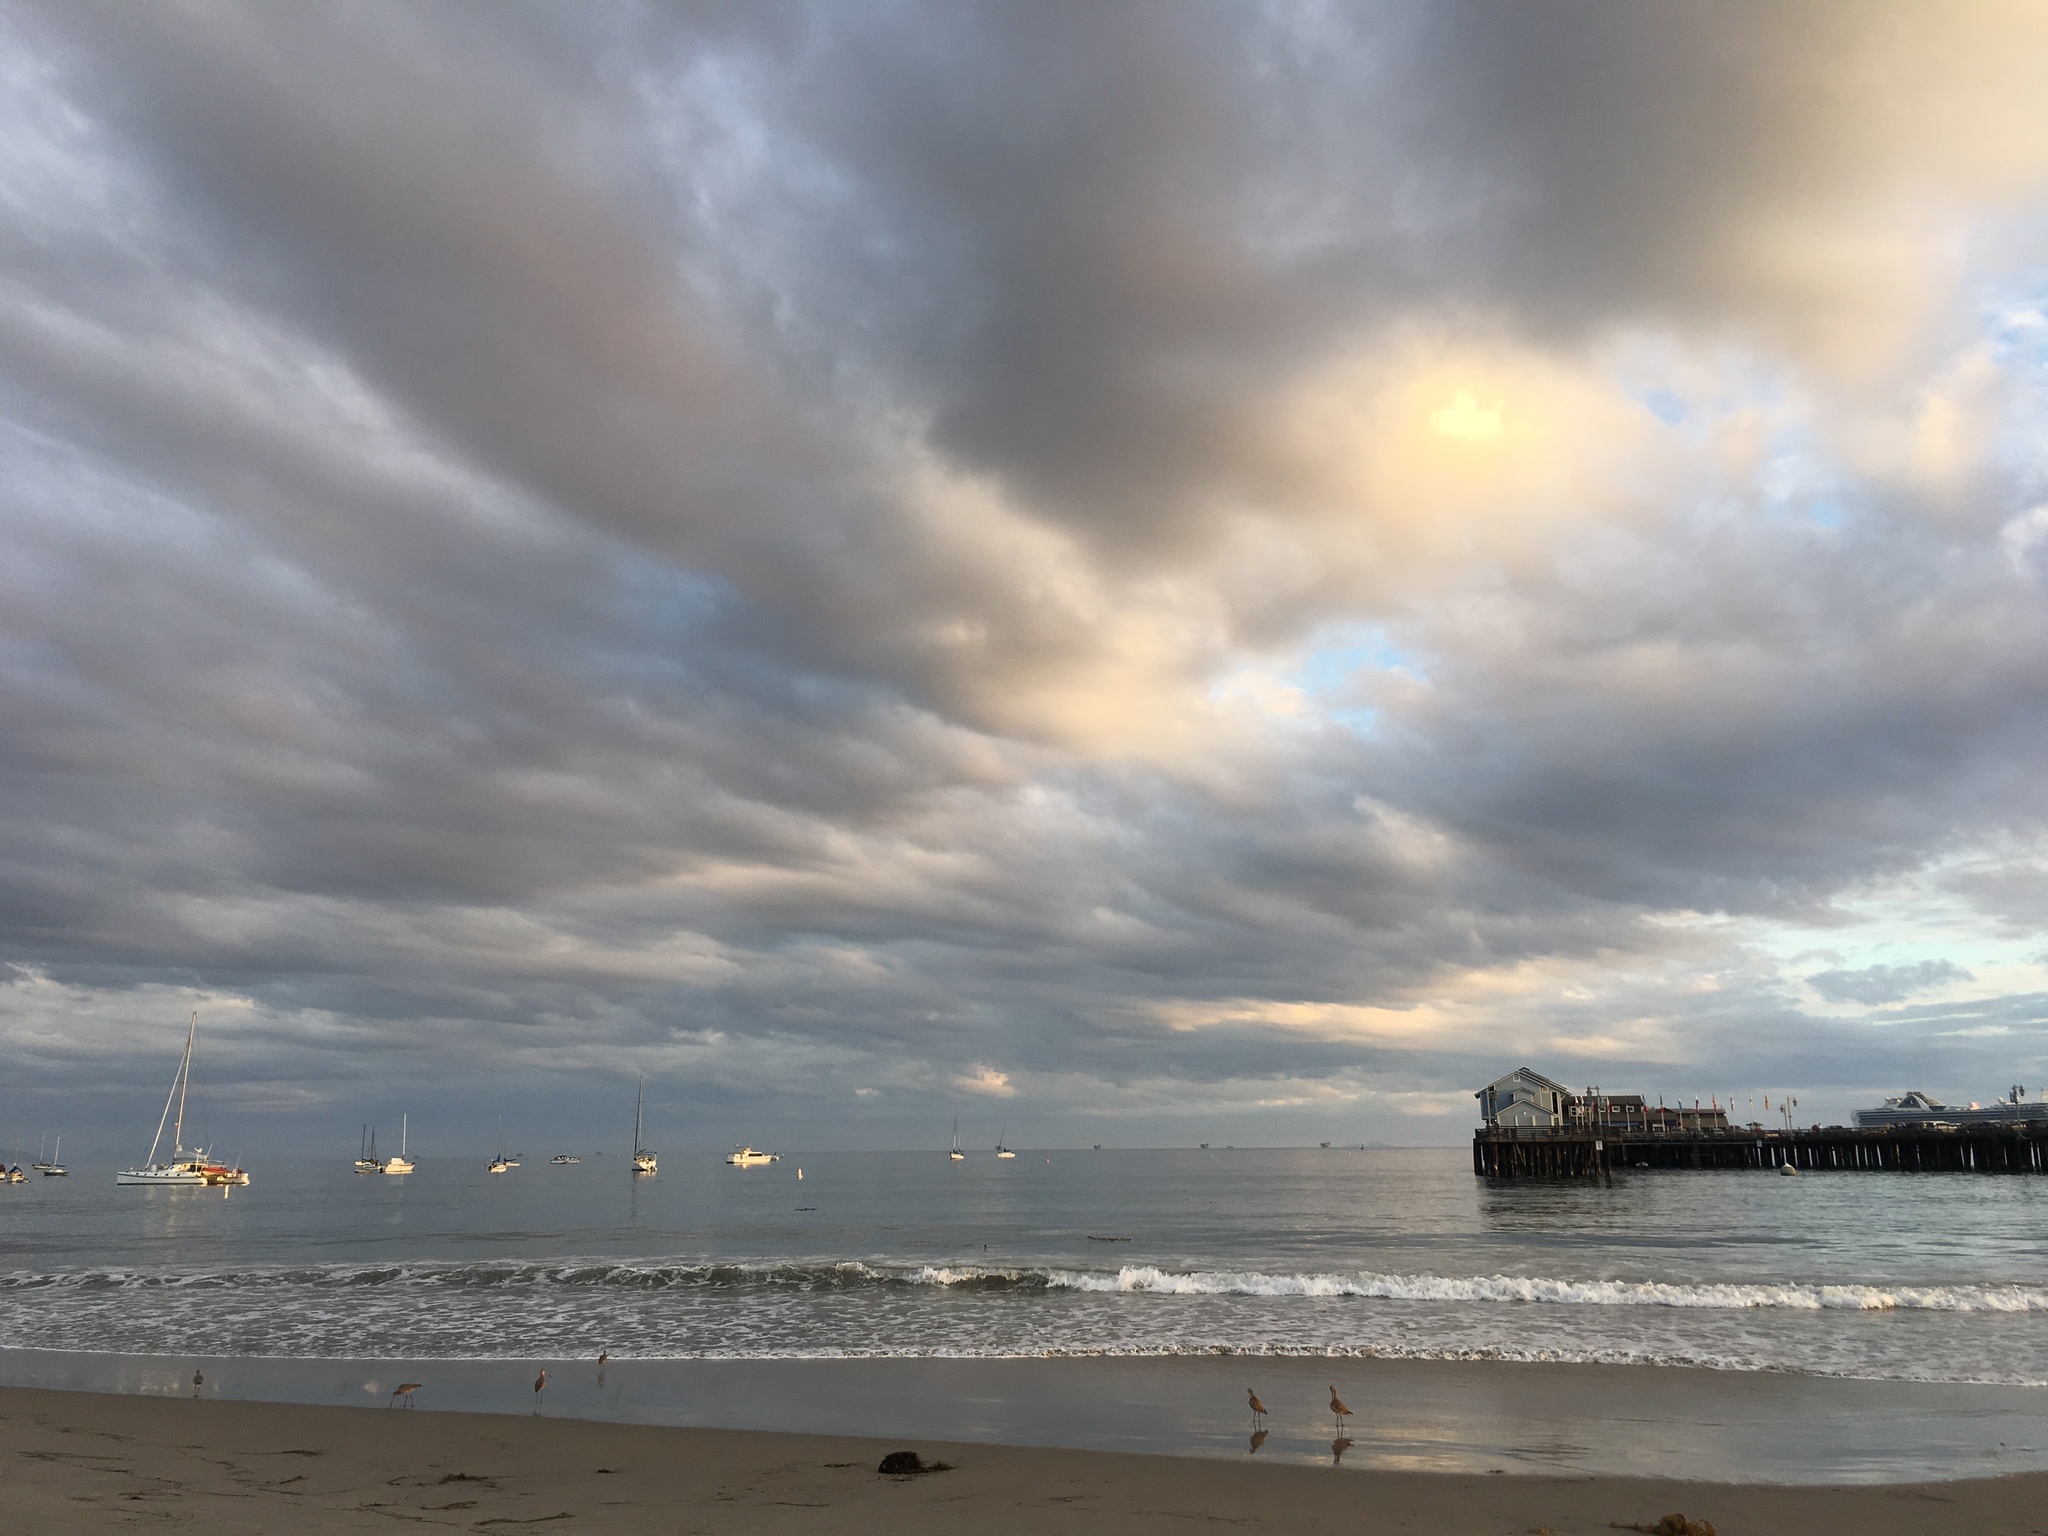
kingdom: Animalia
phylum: Chordata
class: Aves
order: Charadriiformes
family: Scolopacidae
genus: Limosa
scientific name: Limosa fedoa
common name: Marbled godwit
